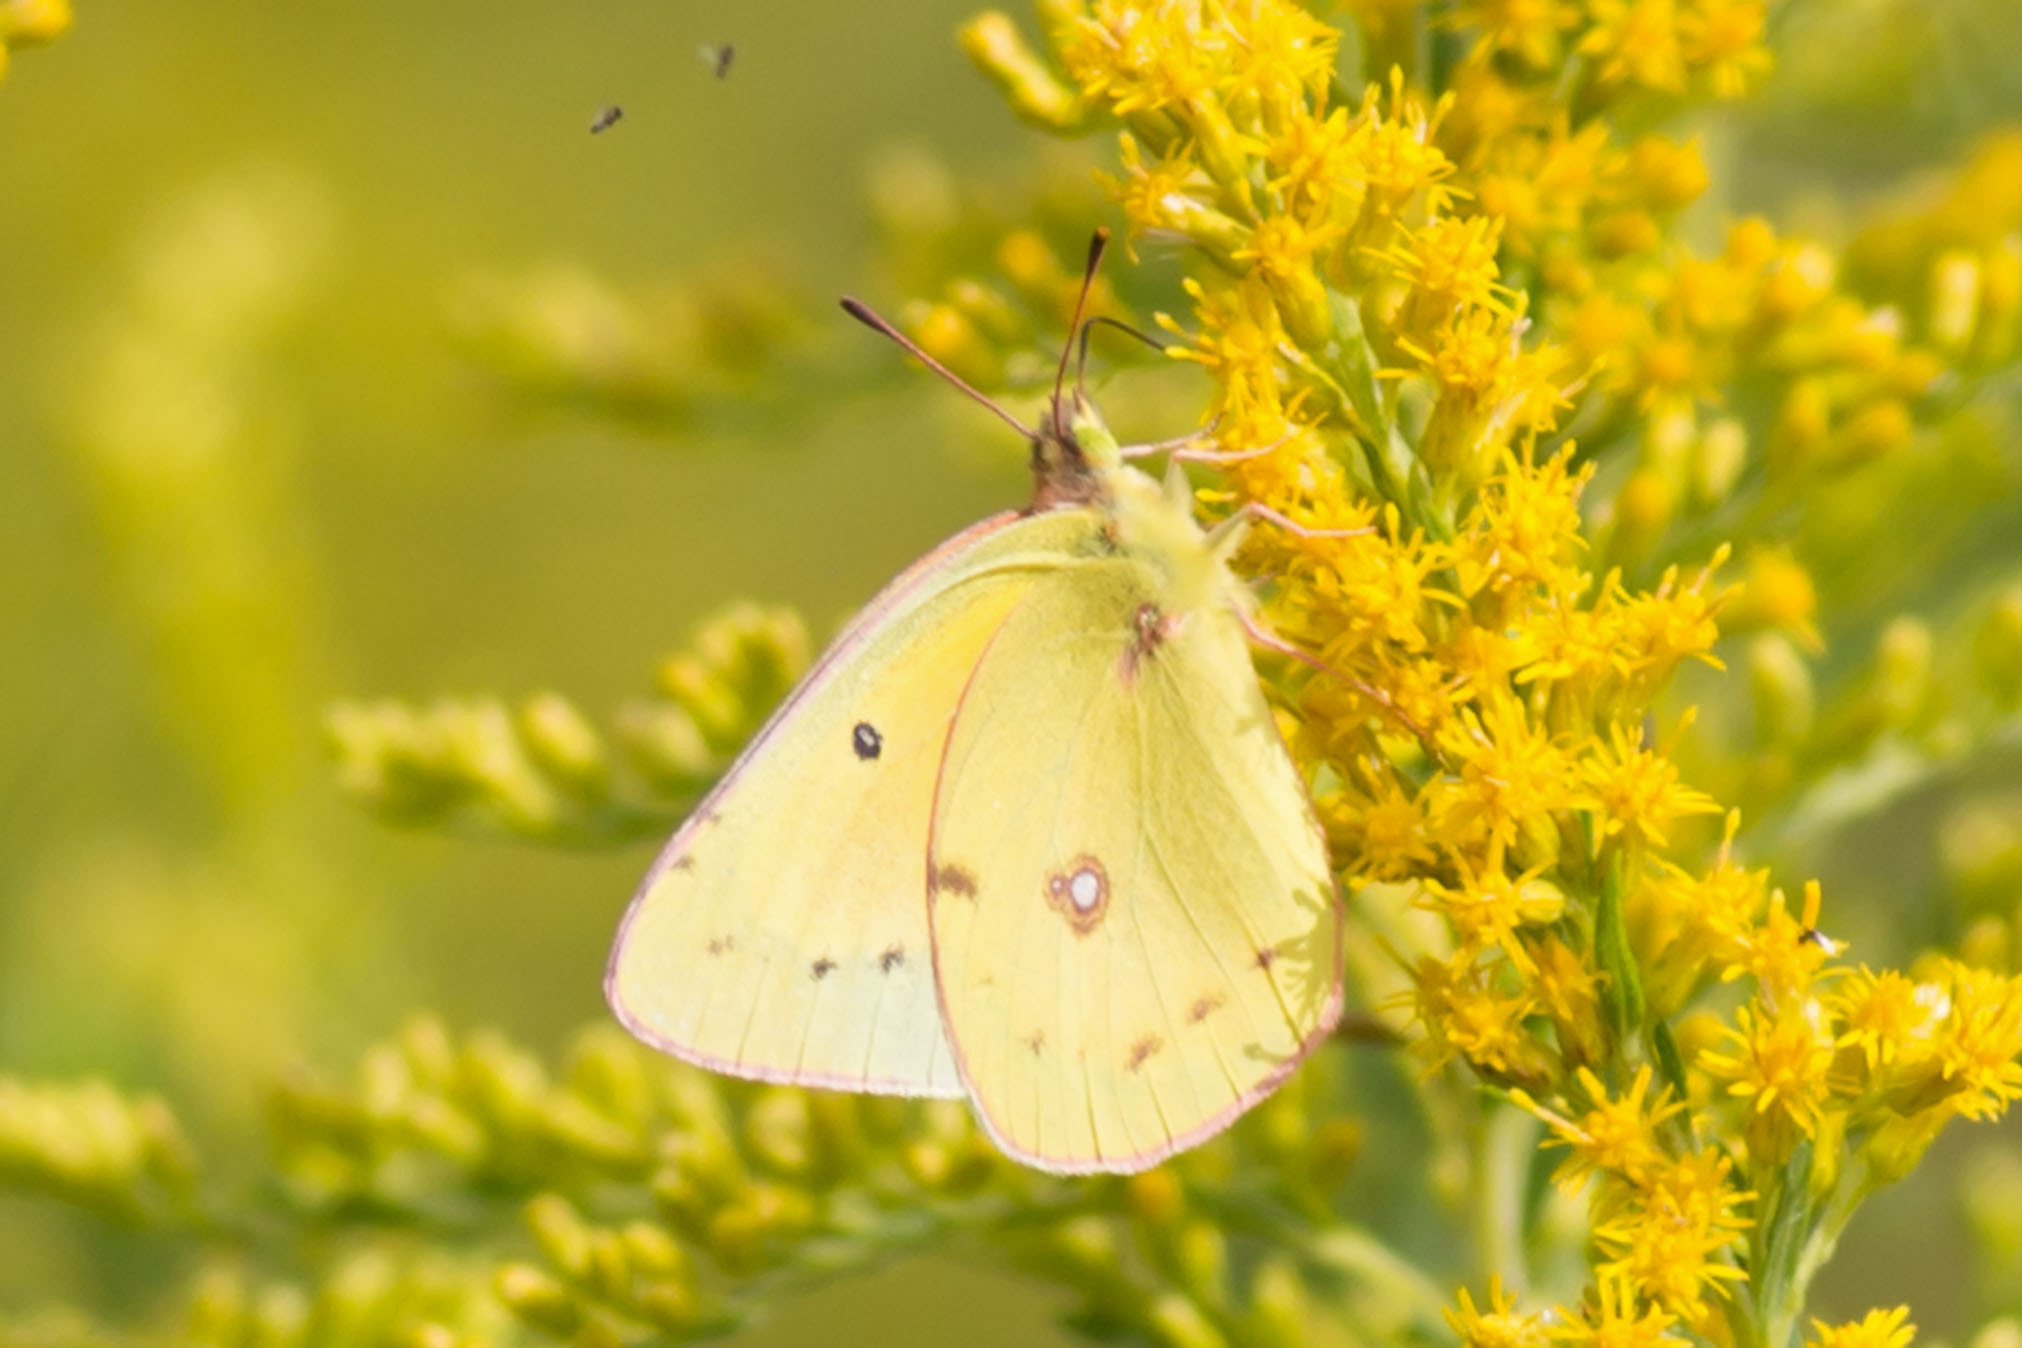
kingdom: Animalia
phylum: Arthropoda
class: Insecta
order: Lepidoptera
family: Pieridae
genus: Colias
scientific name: Colias eurytheme
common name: Alfalfa butterfly
